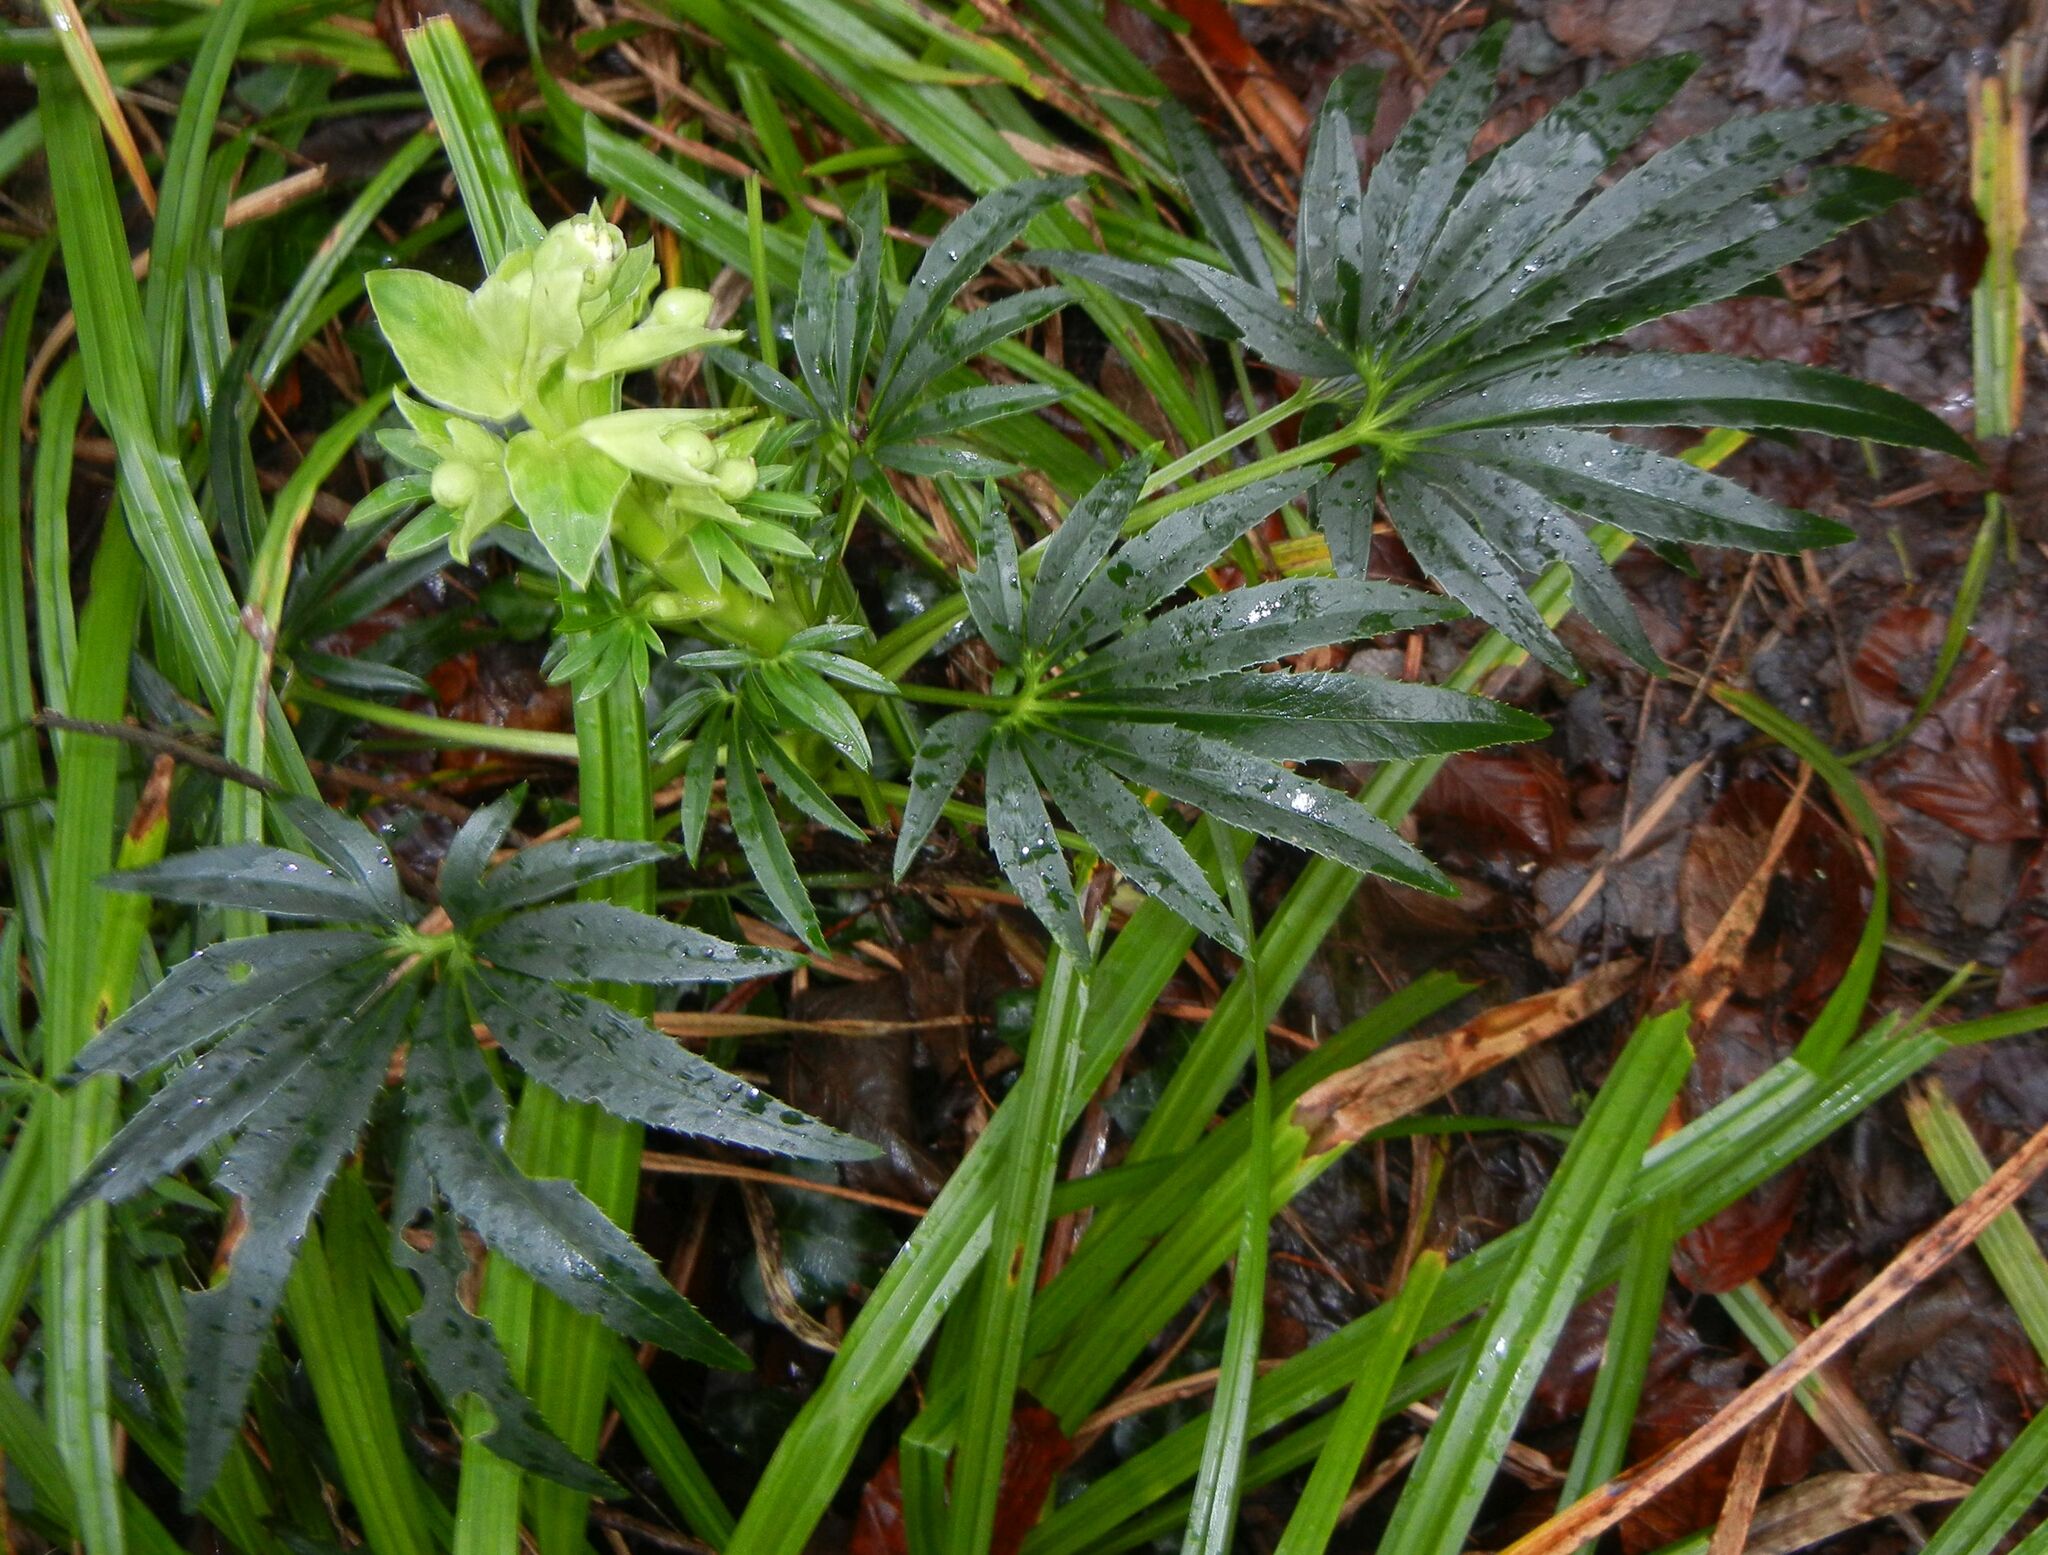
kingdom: Plantae
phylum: Tracheophyta
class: Magnoliopsida
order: Ranunculales
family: Ranunculaceae
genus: Helleborus
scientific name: Helleborus foetidus
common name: Stinking hellebore
